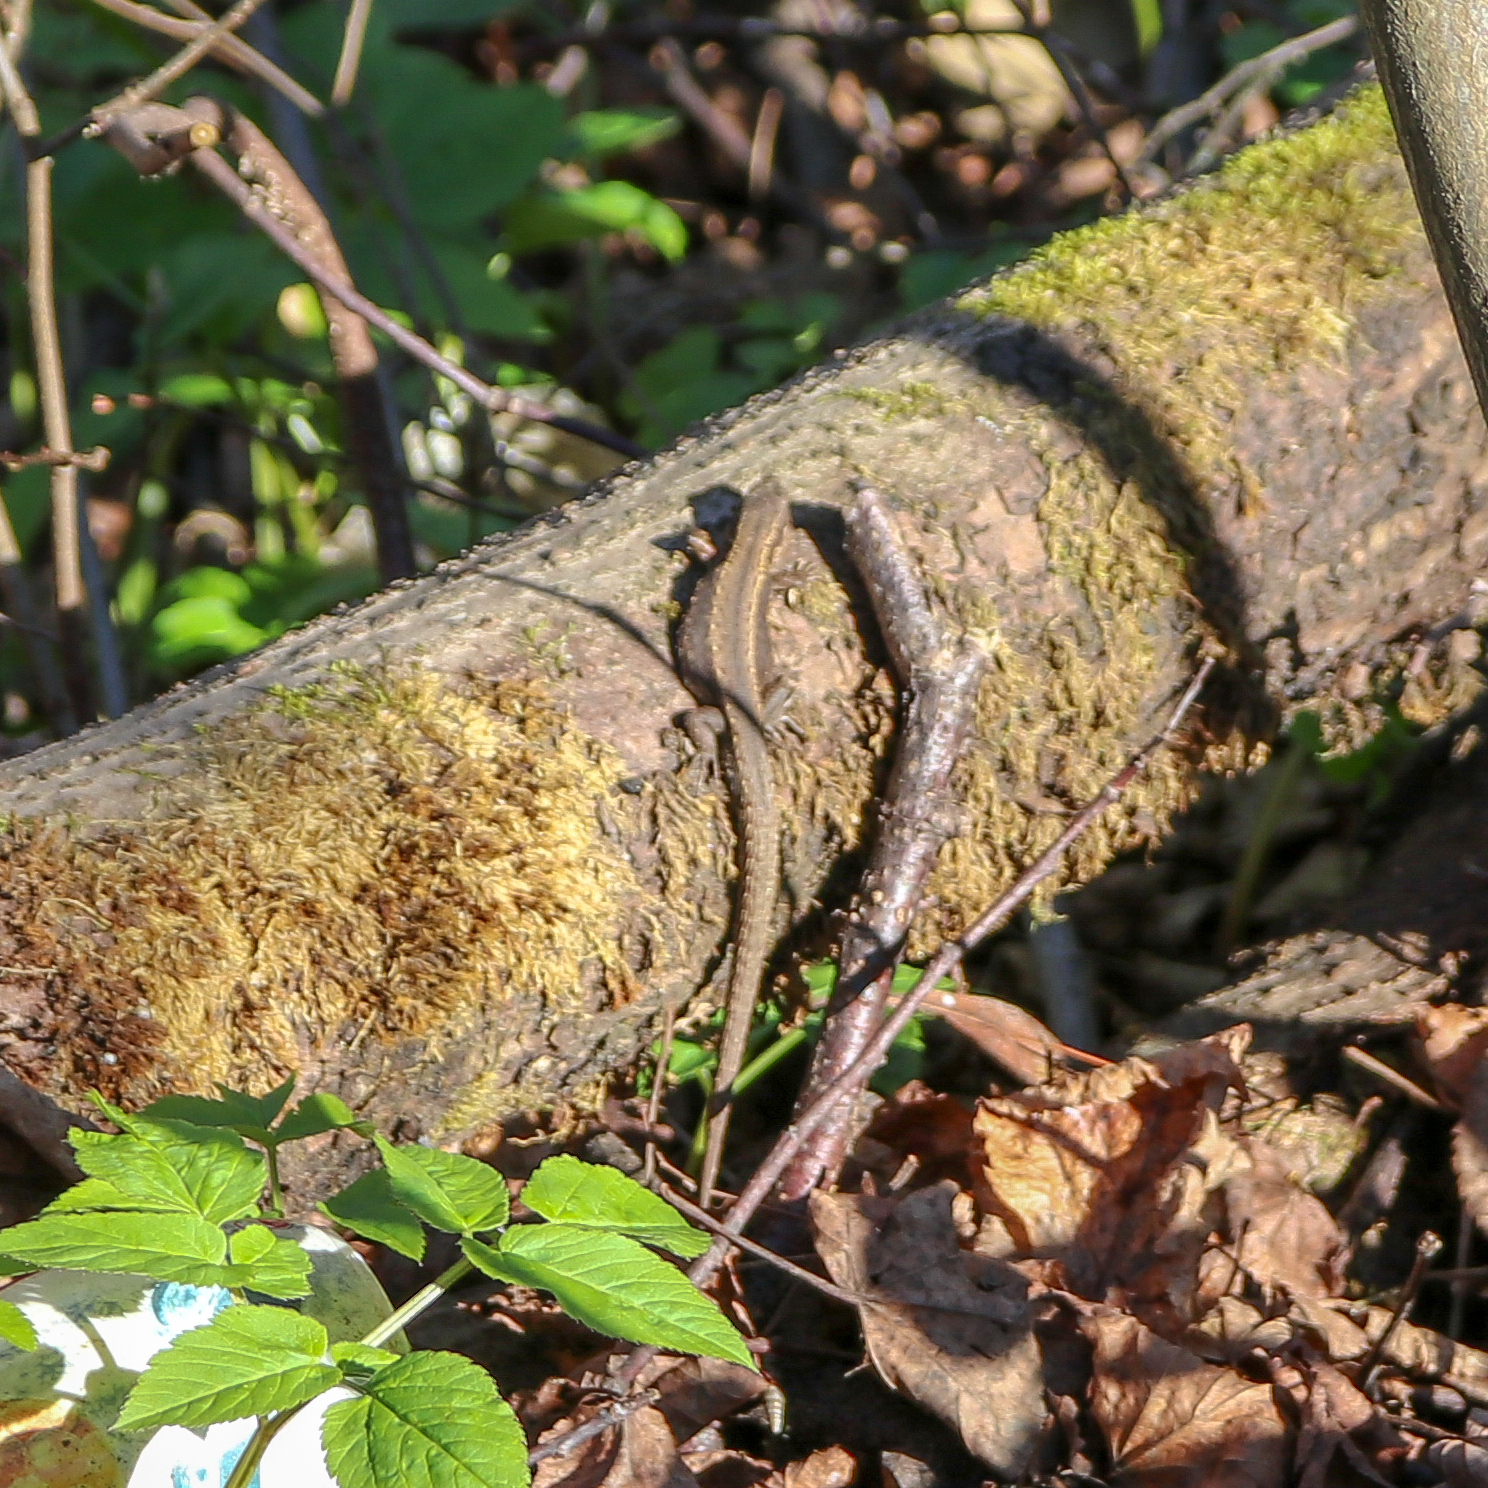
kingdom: Animalia
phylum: Chordata
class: Squamata
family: Lacertidae
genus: Zootoca
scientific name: Zootoca vivipara
